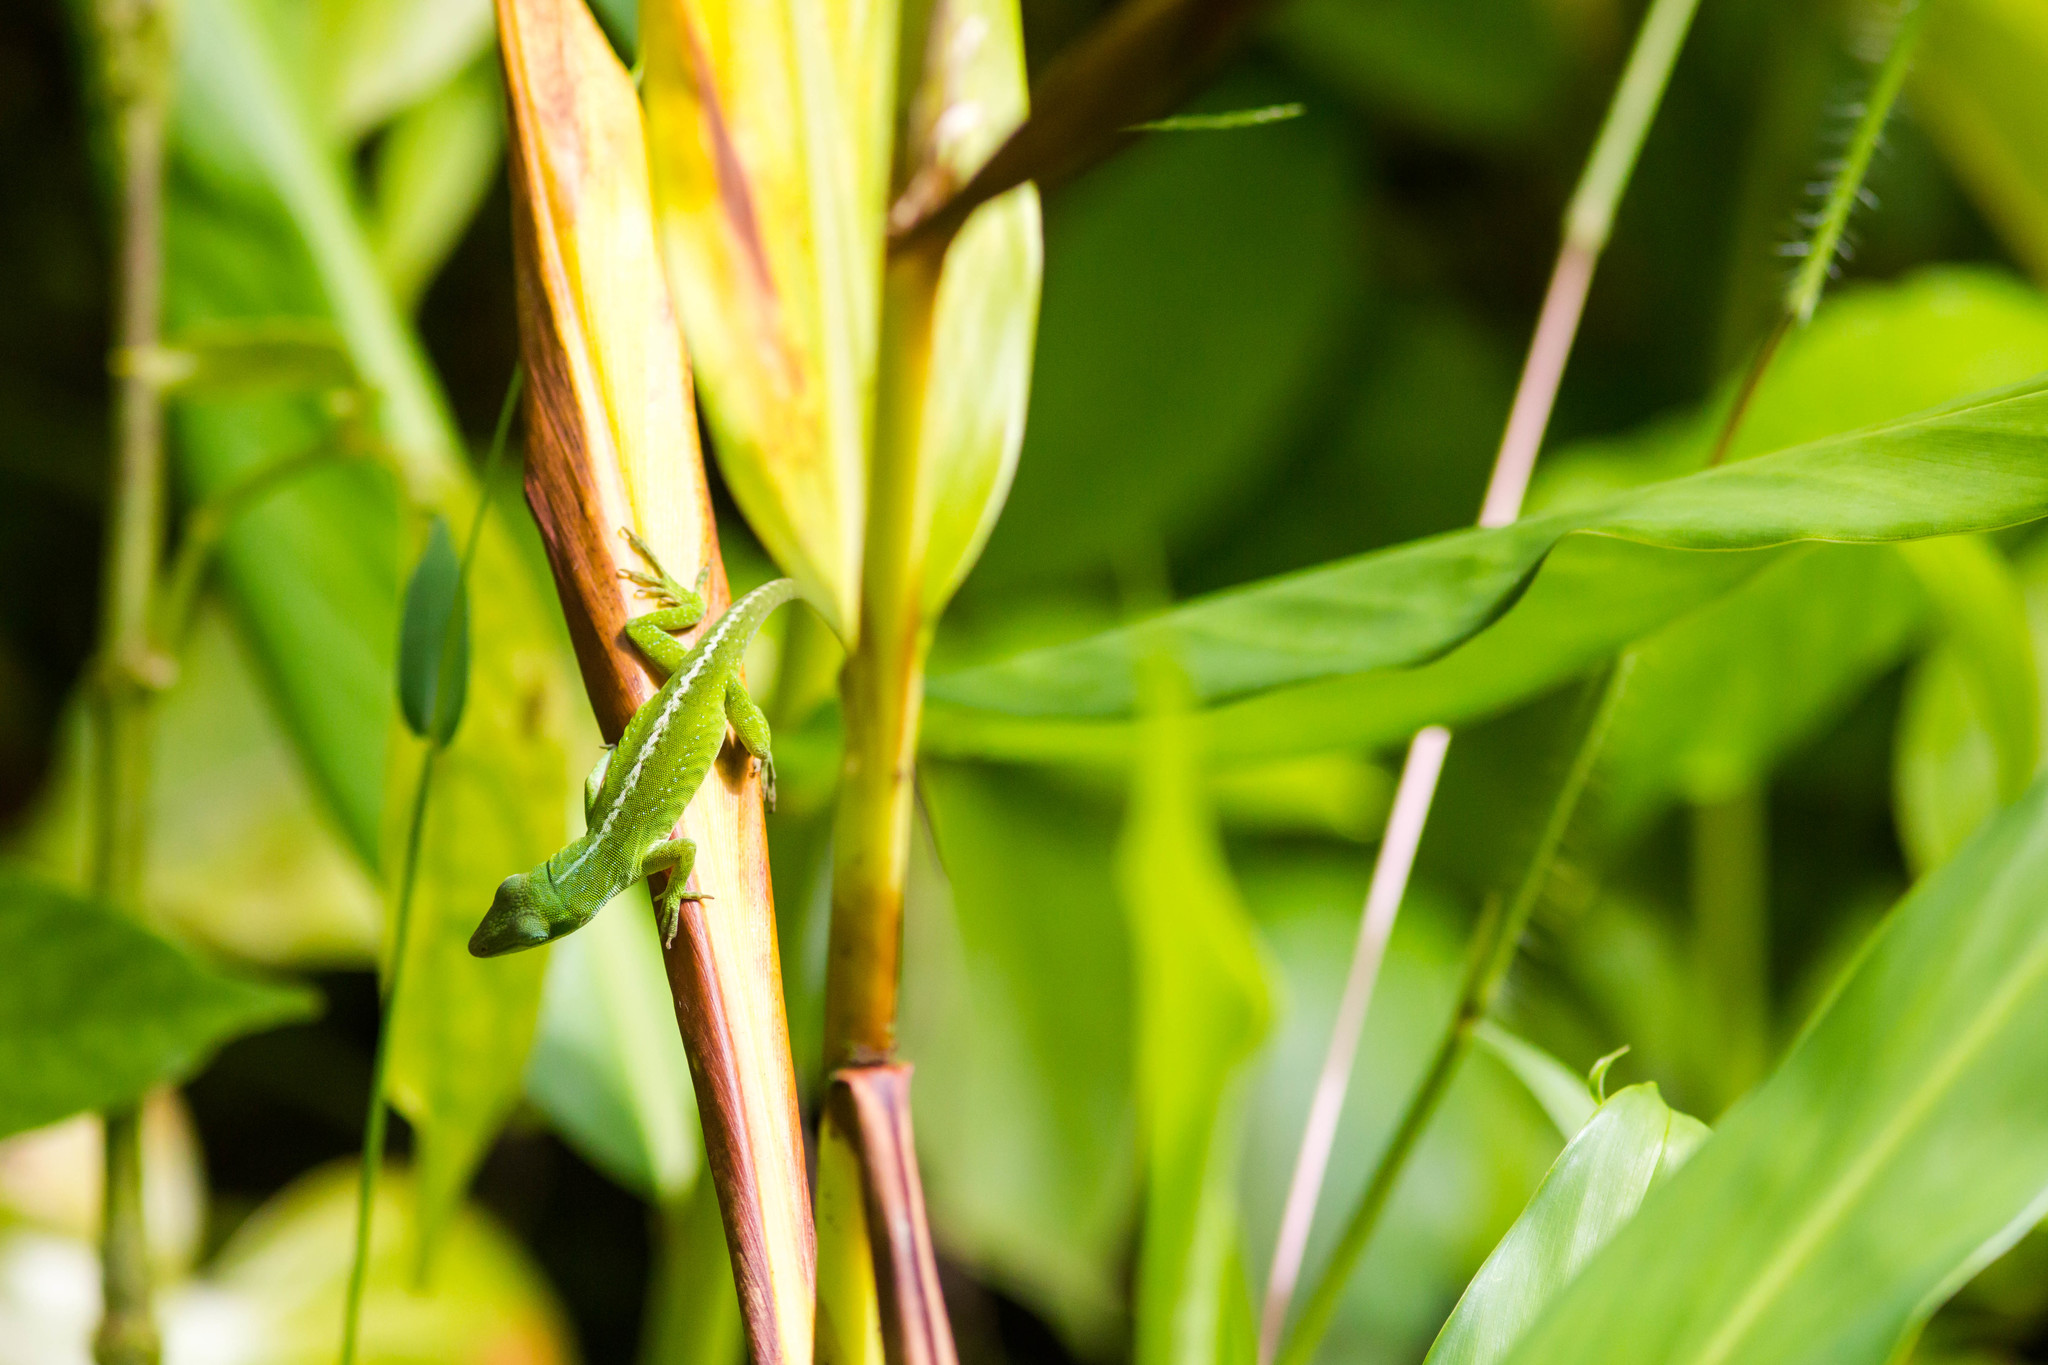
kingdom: Animalia
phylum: Chordata
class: Squamata
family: Dactyloidae
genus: Anolis
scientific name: Anolis carolinensis
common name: Green anole
